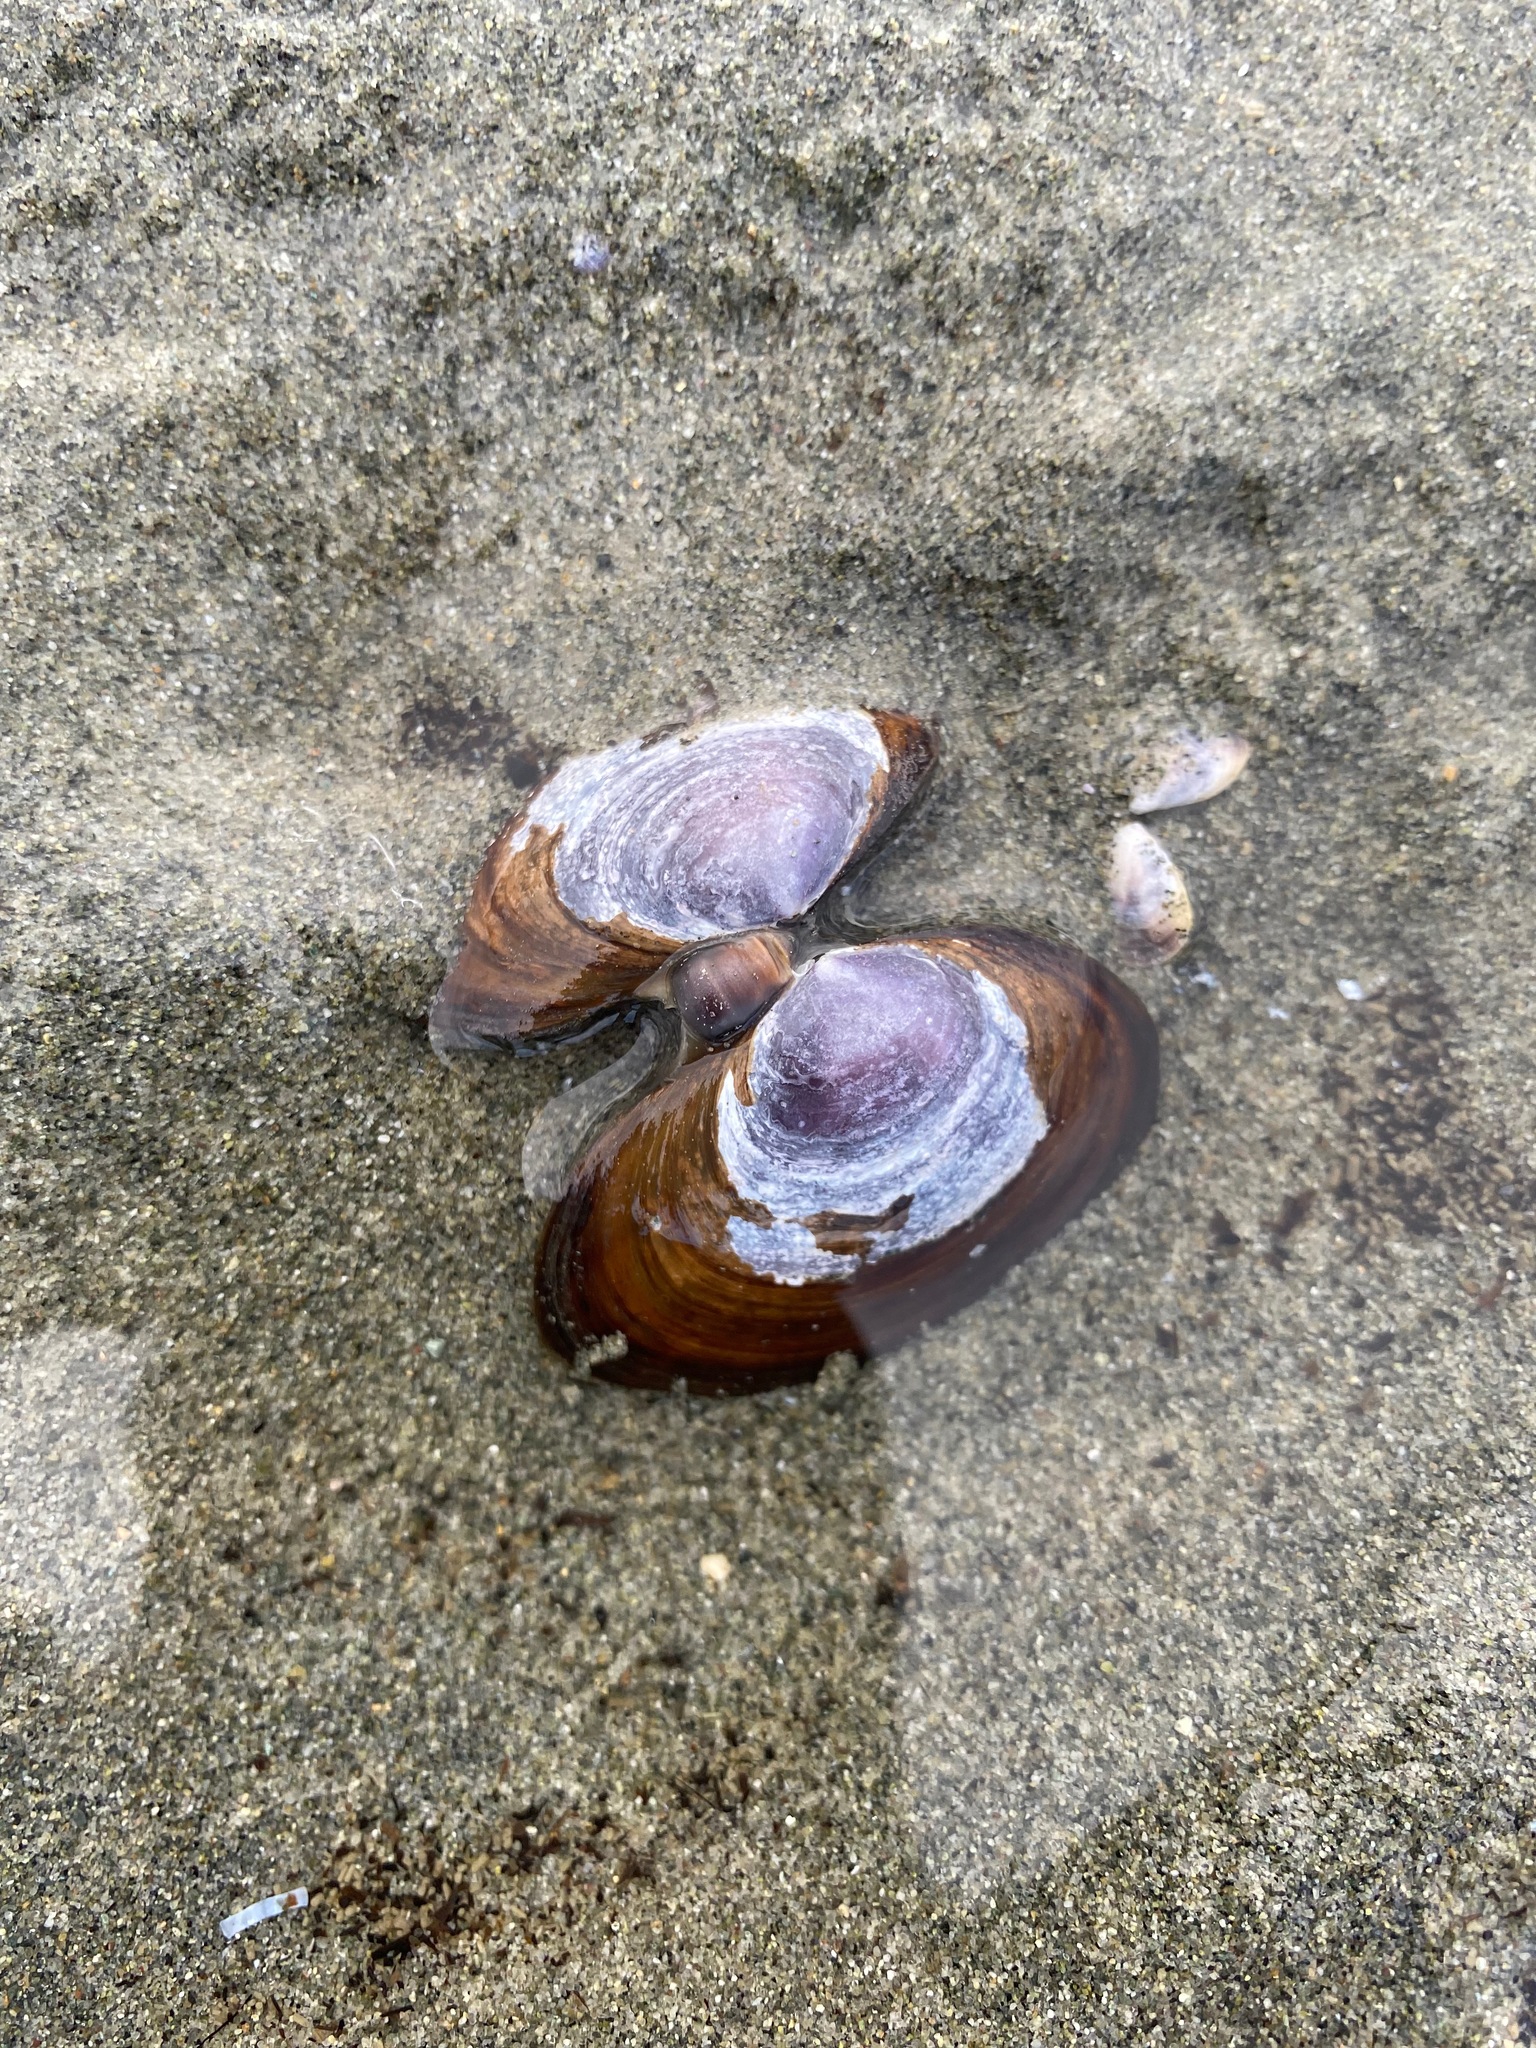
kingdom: Animalia
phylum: Mollusca
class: Bivalvia
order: Cardiida
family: Psammobiidae
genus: Nuttallia
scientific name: Nuttallia obscurata
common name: Purple mahogany-clam
